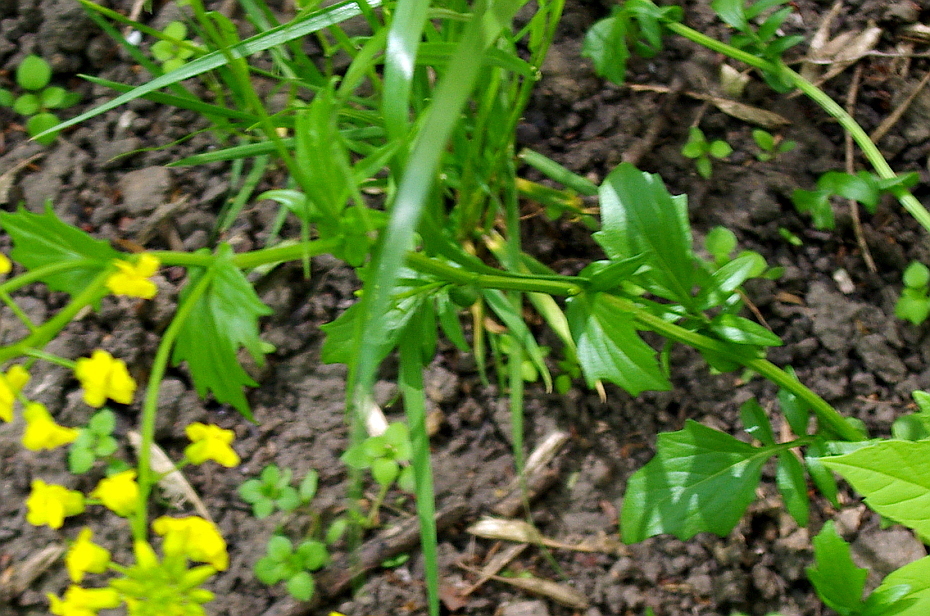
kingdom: Plantae
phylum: Tracheophyta
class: Magnoliopsida
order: Brassicales
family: Brassicaceae
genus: Barbarea
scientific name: Barbarea vulgaris
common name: Cressy-greens
